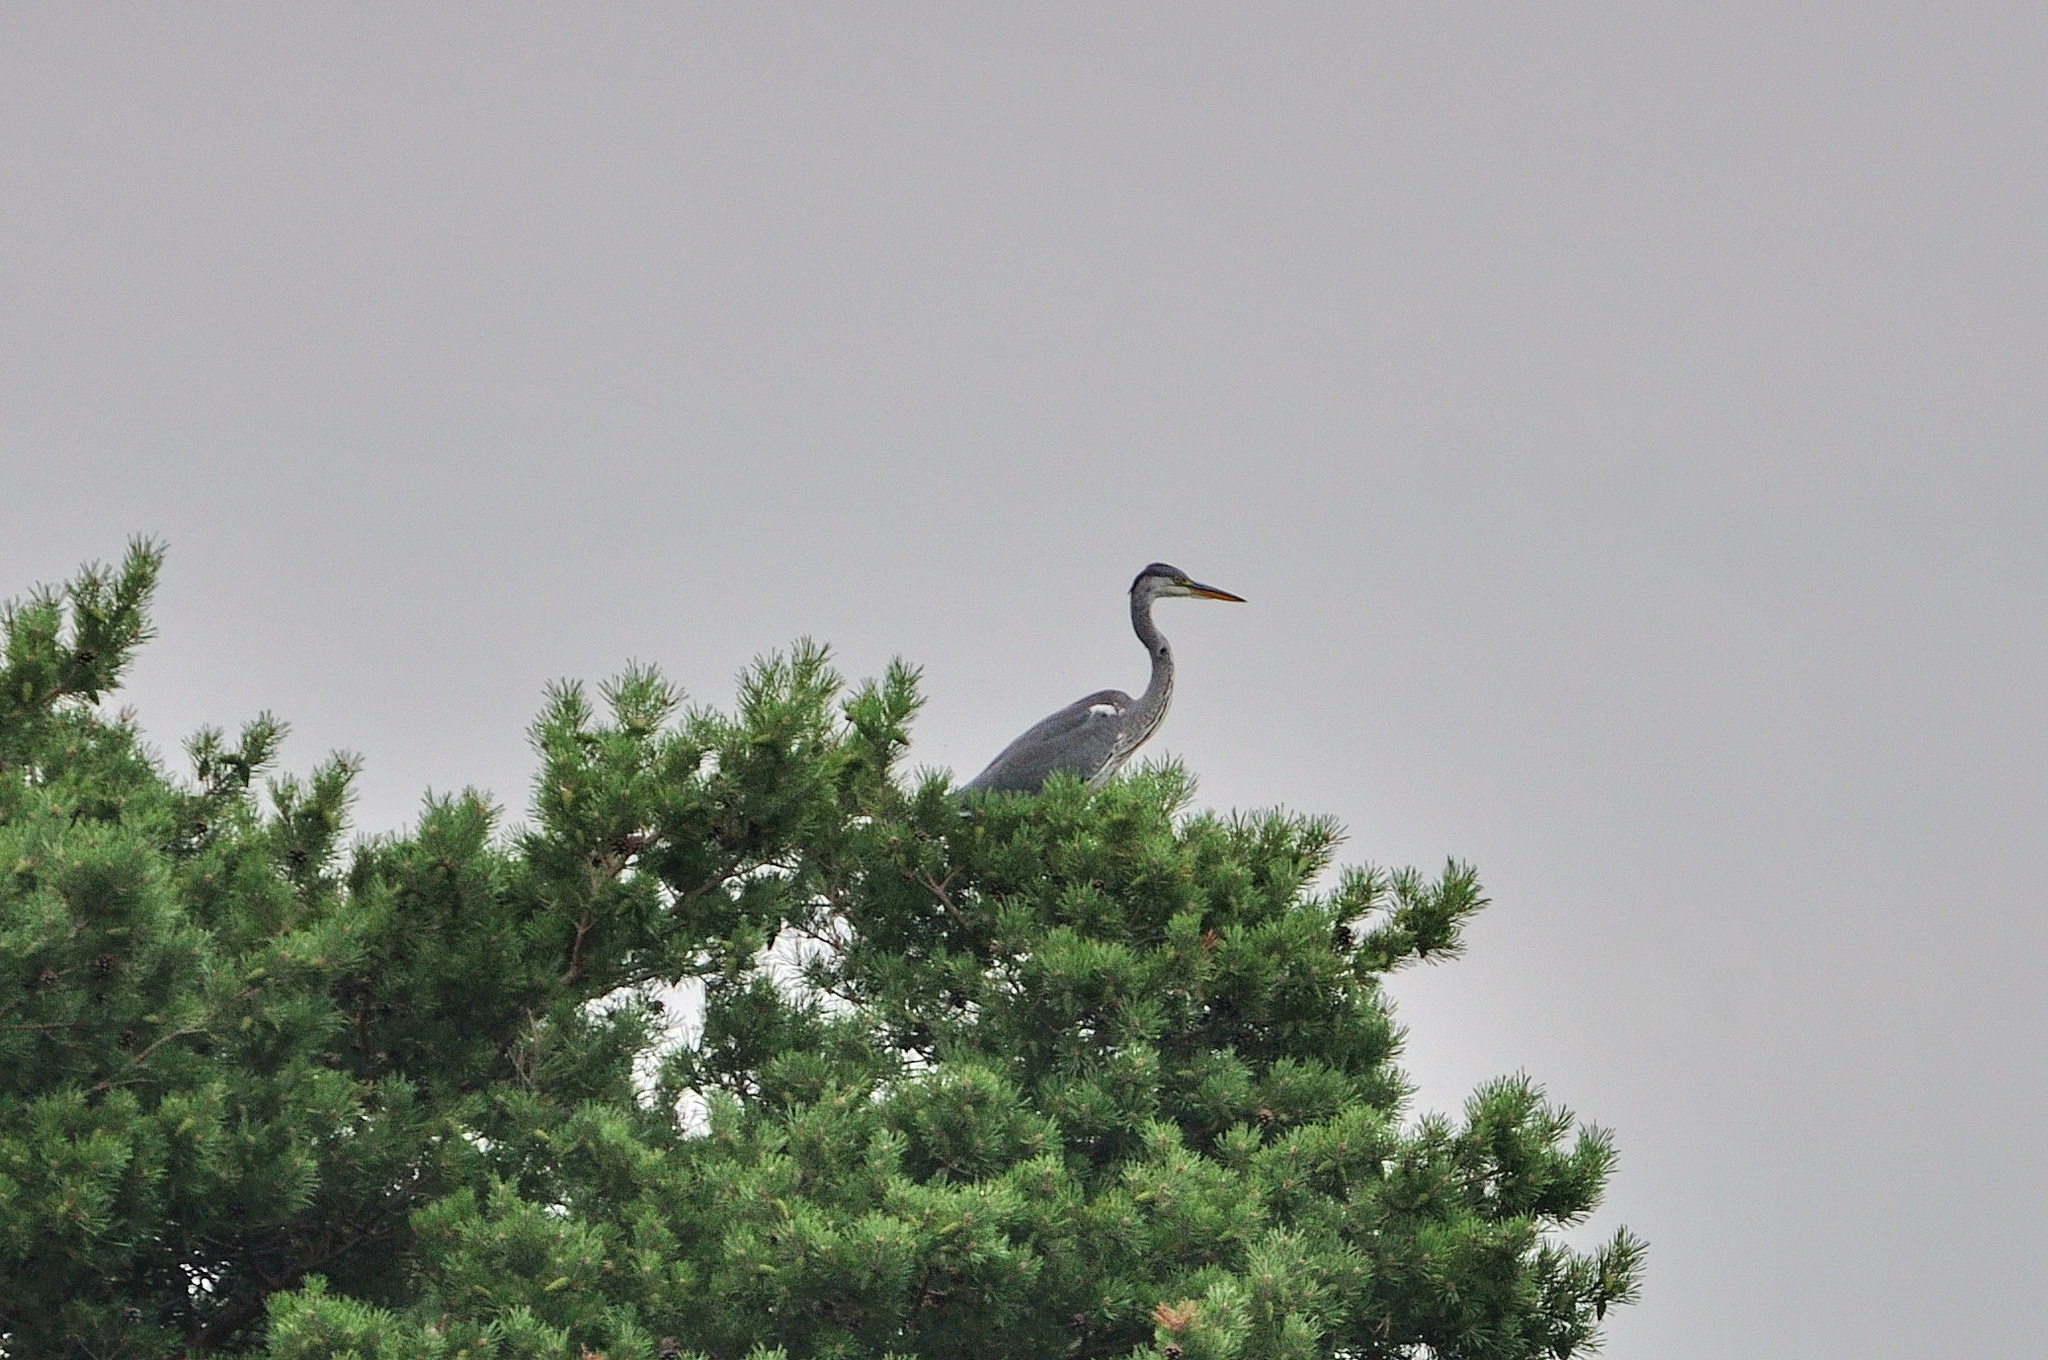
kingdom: Animalia
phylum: Chordata
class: Aves
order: Pelecaniformes
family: Ardeidae
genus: Ardea
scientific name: Ardea cinerea
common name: Grey heron
